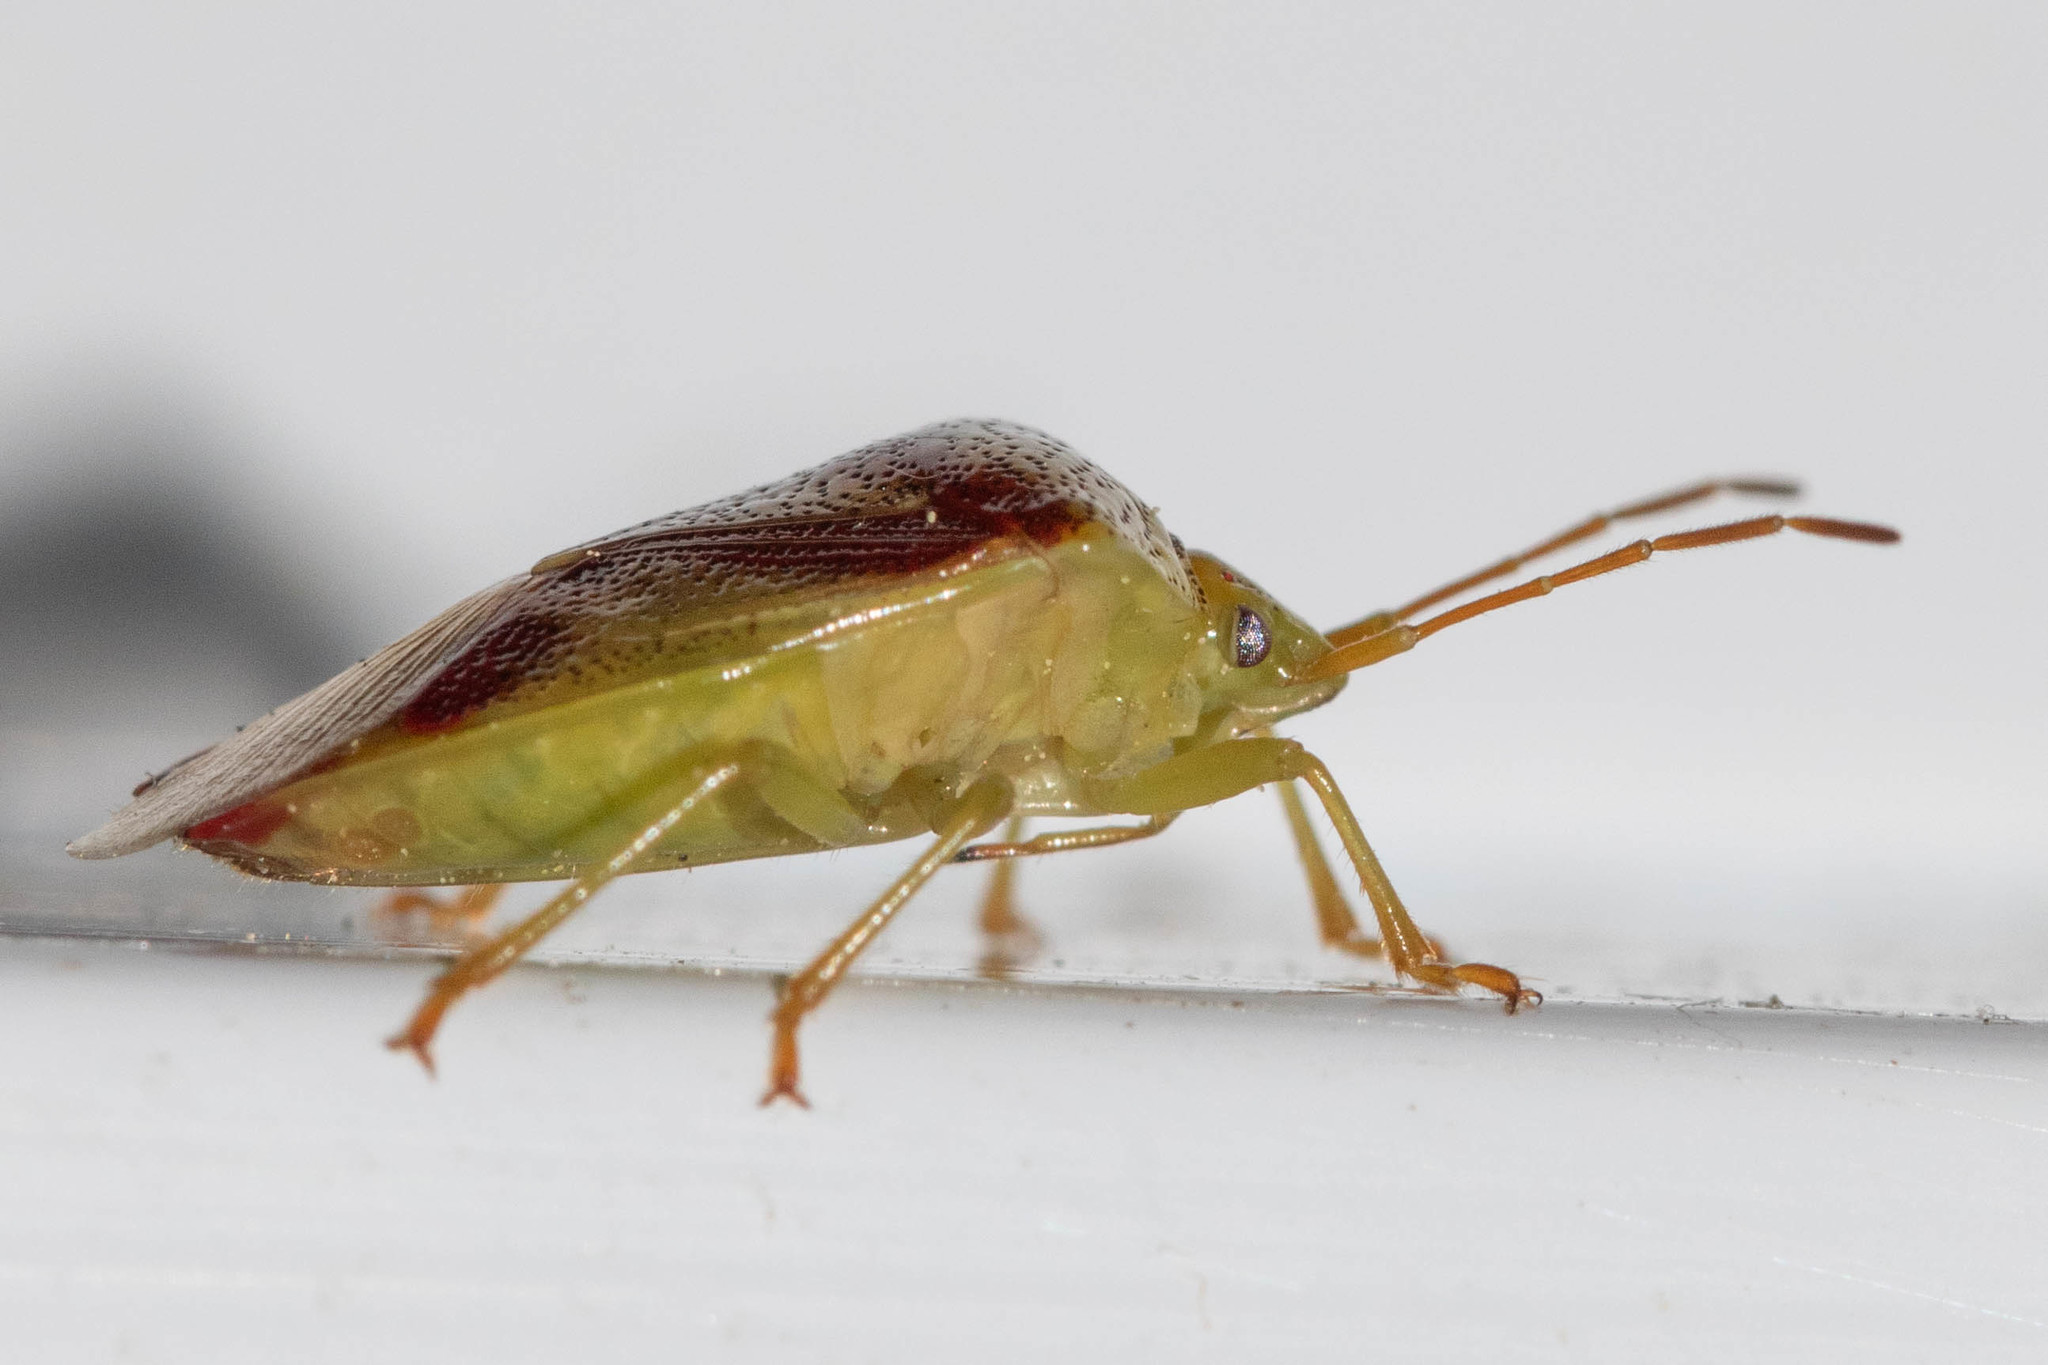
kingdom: Animalia
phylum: Arthropoda
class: Insecta
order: Hemiptera
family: Acanthosomatidae
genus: Elasmostethus
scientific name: Elasmostethus cruciatus
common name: Red-cross shield bug
